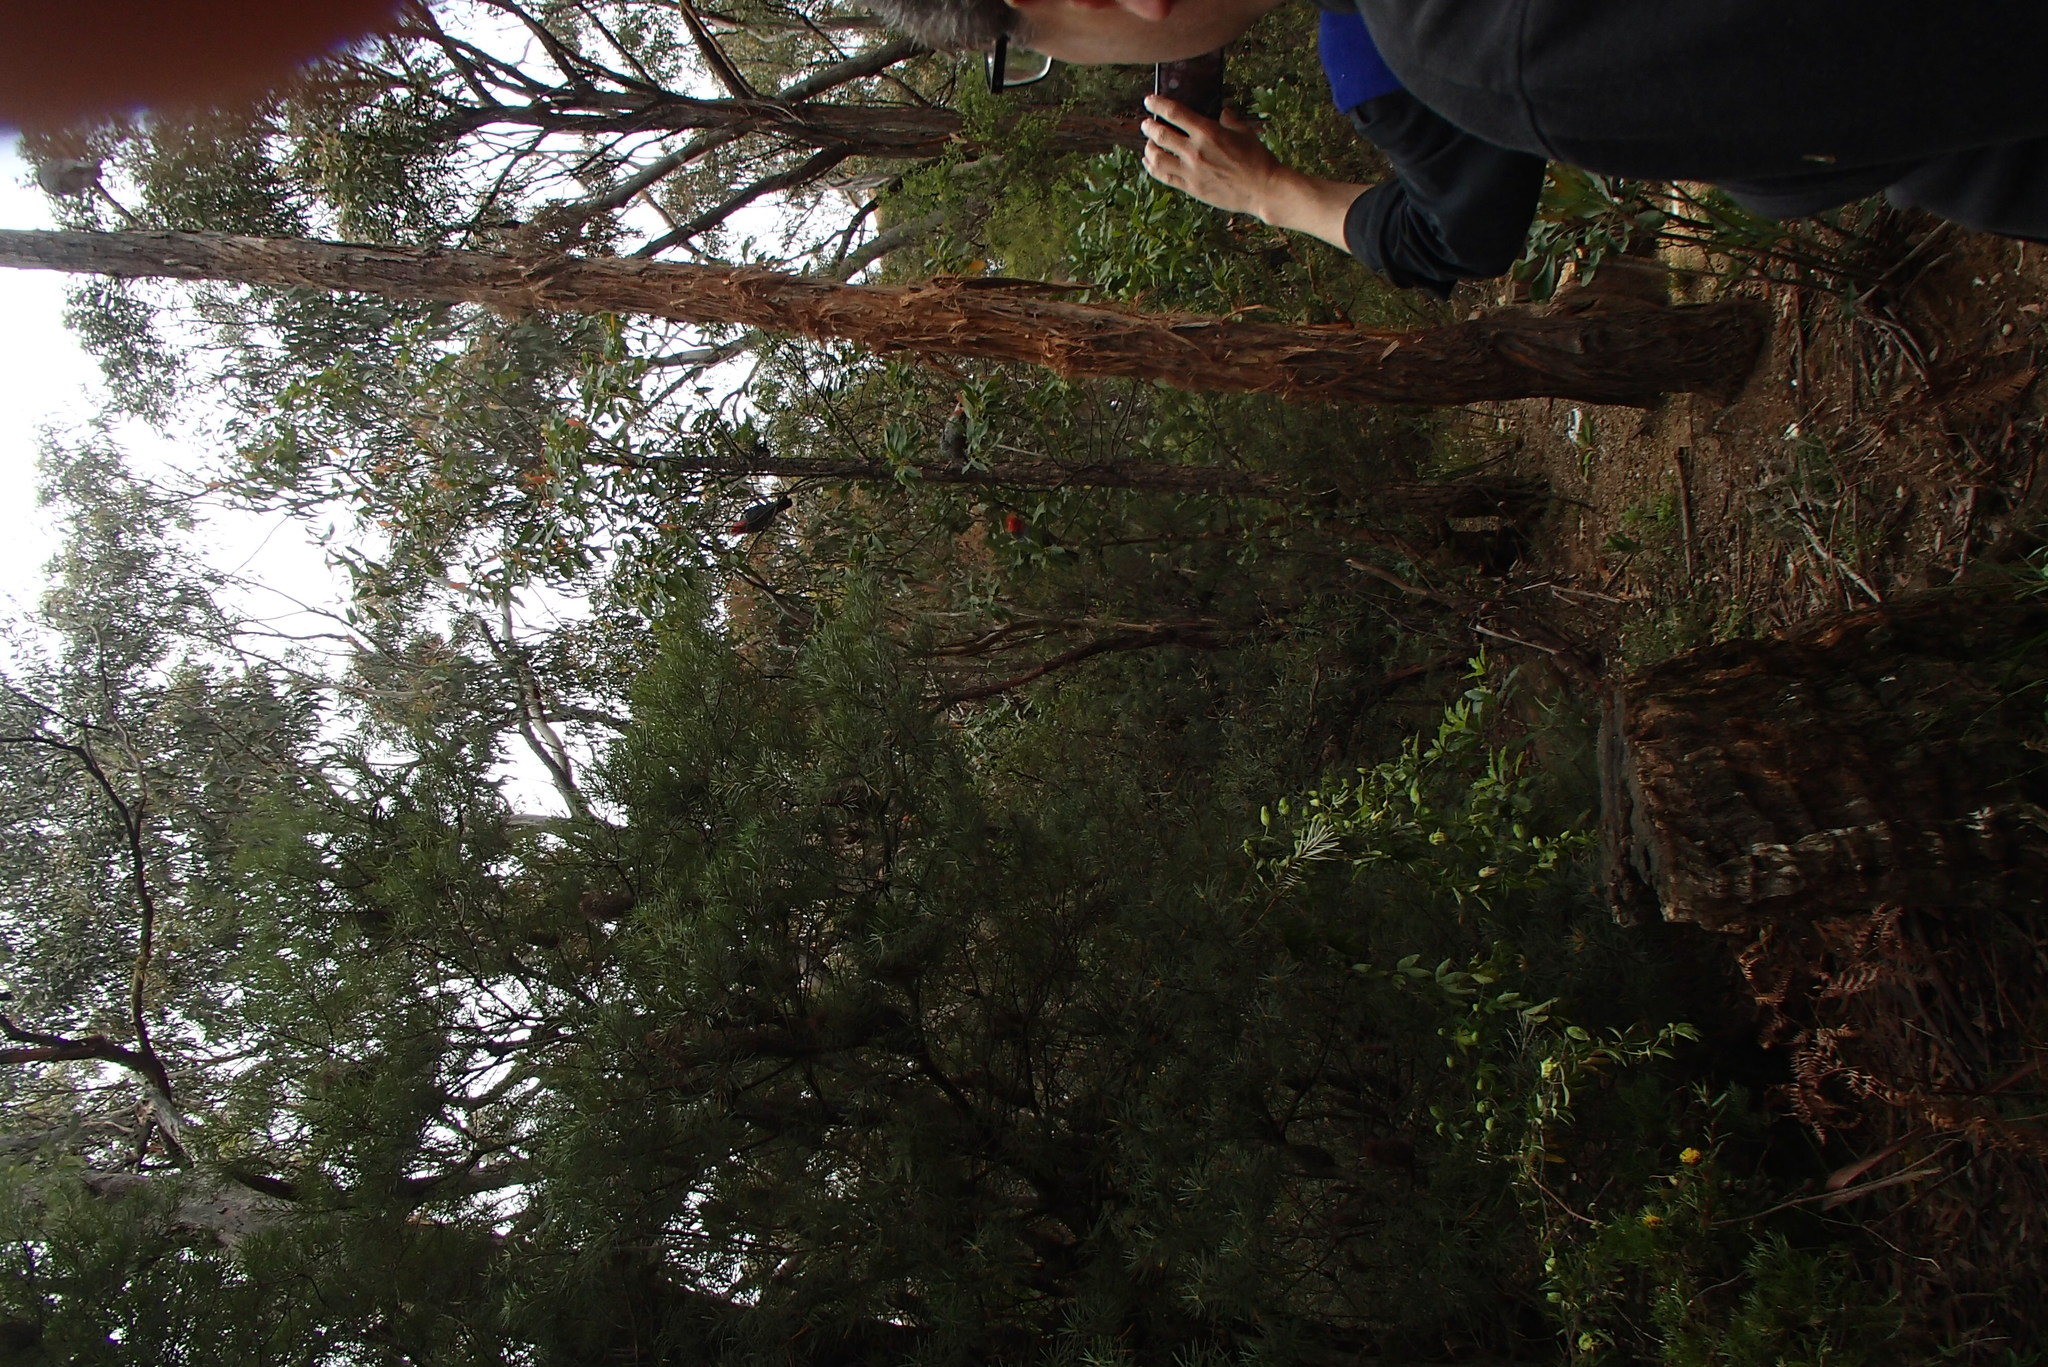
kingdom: Animalia
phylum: Chordata
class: Aves
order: Psittaciformes
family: Psittacidae
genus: Callocephalon
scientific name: Callocephalon fimbriatum
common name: Gang-gang cockatoo
